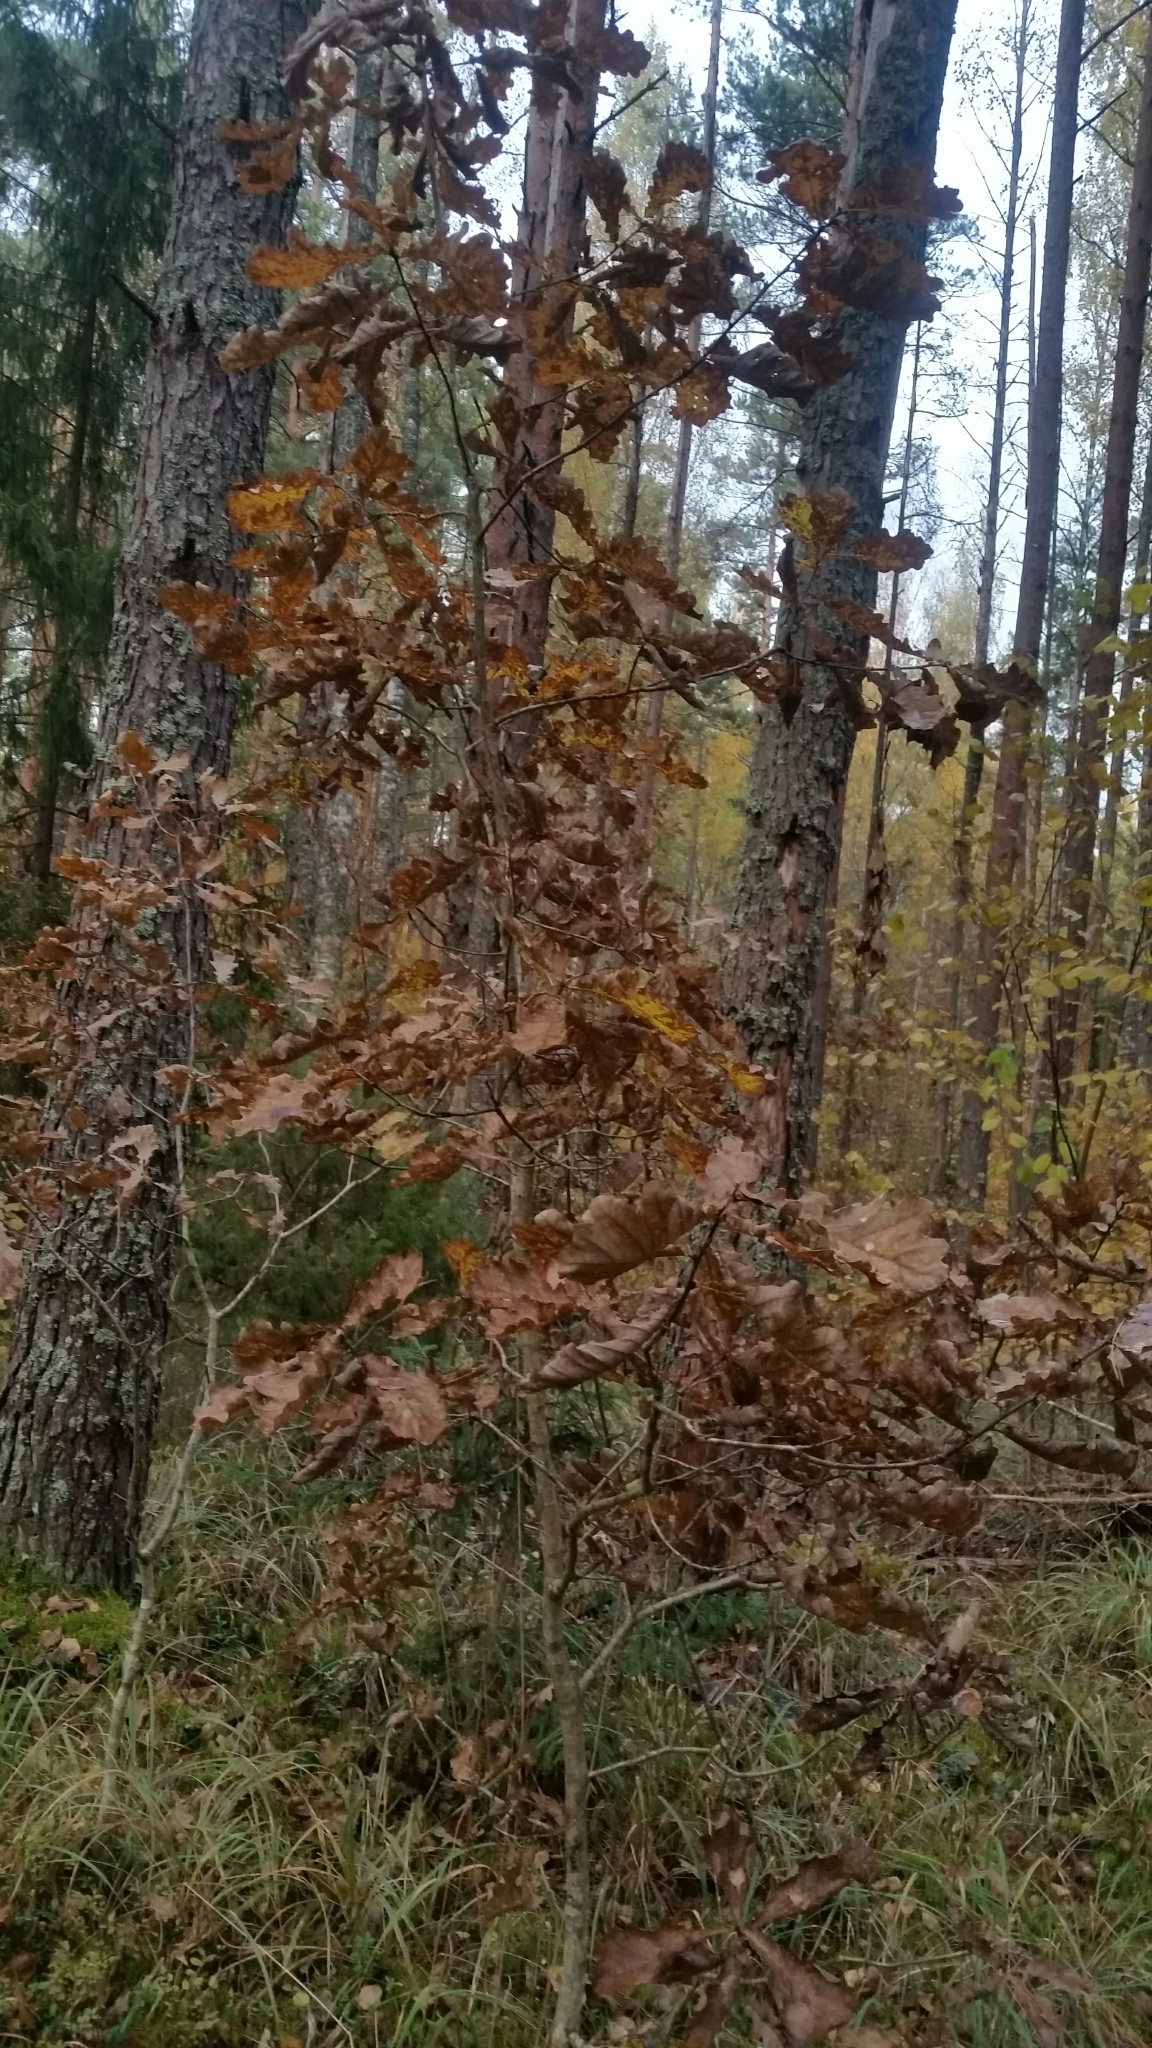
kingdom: Plantae
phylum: Tracheophyta
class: Magnoliopsida
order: Fagales
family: Fagaceae
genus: Quercus
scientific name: Quercus robur
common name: Pedunculate oak
